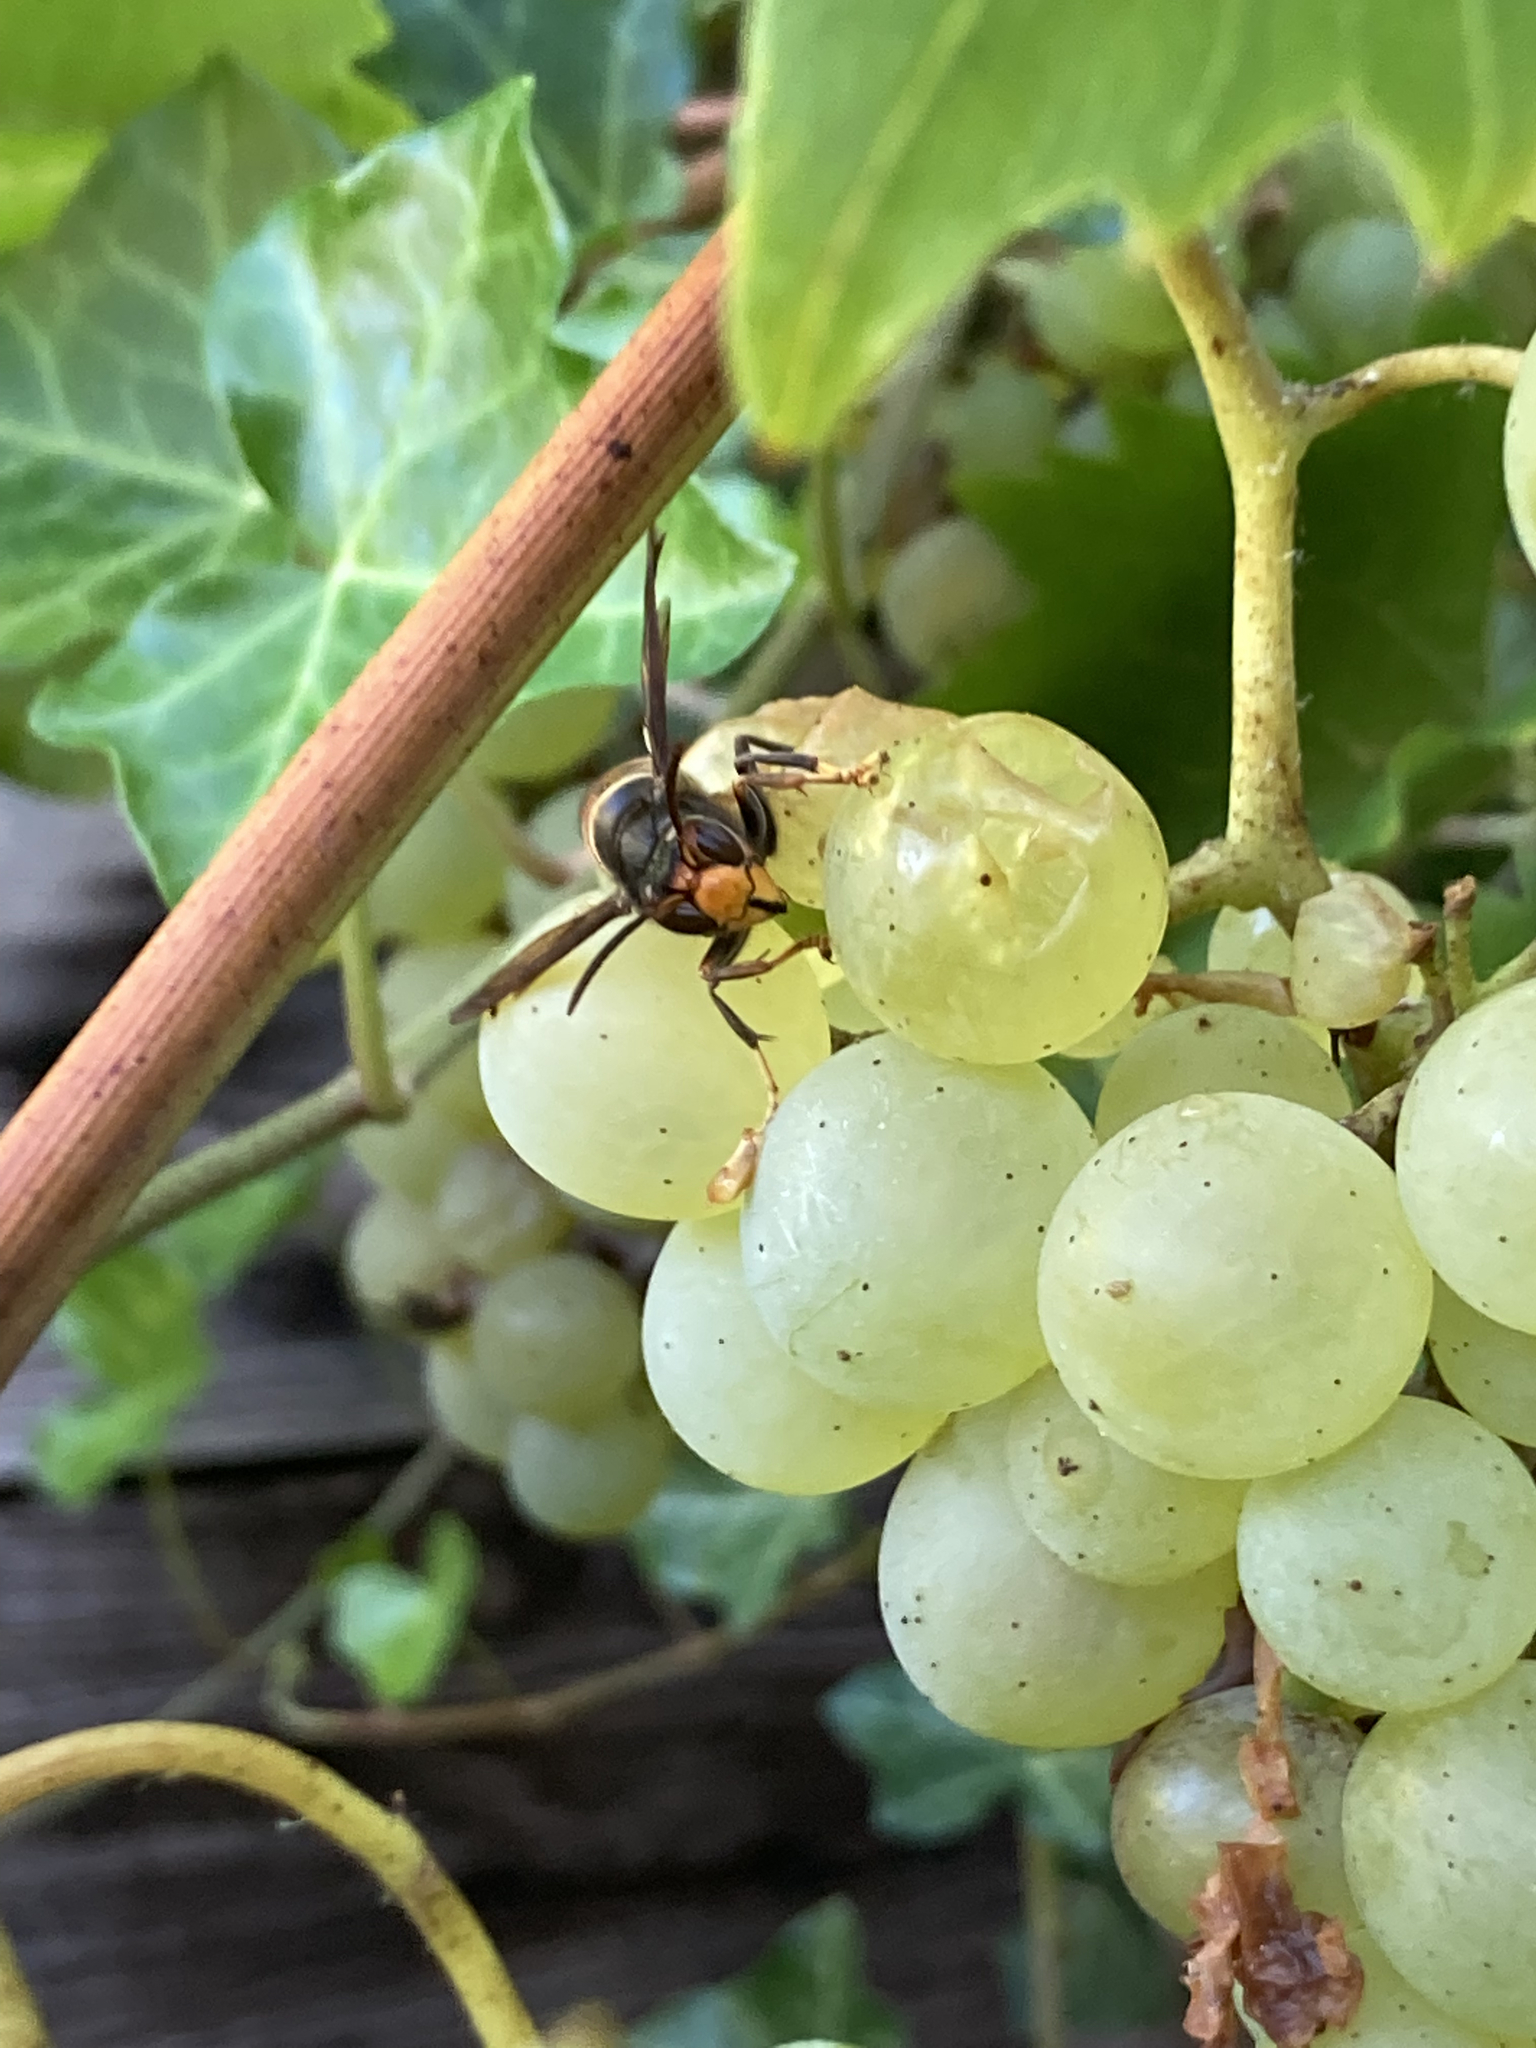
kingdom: Animalia
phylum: Arthropoda
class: Insecta
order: Hymenoptera
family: Vespidae
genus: Vespa
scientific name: Vespa velutina
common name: Asian hornet
